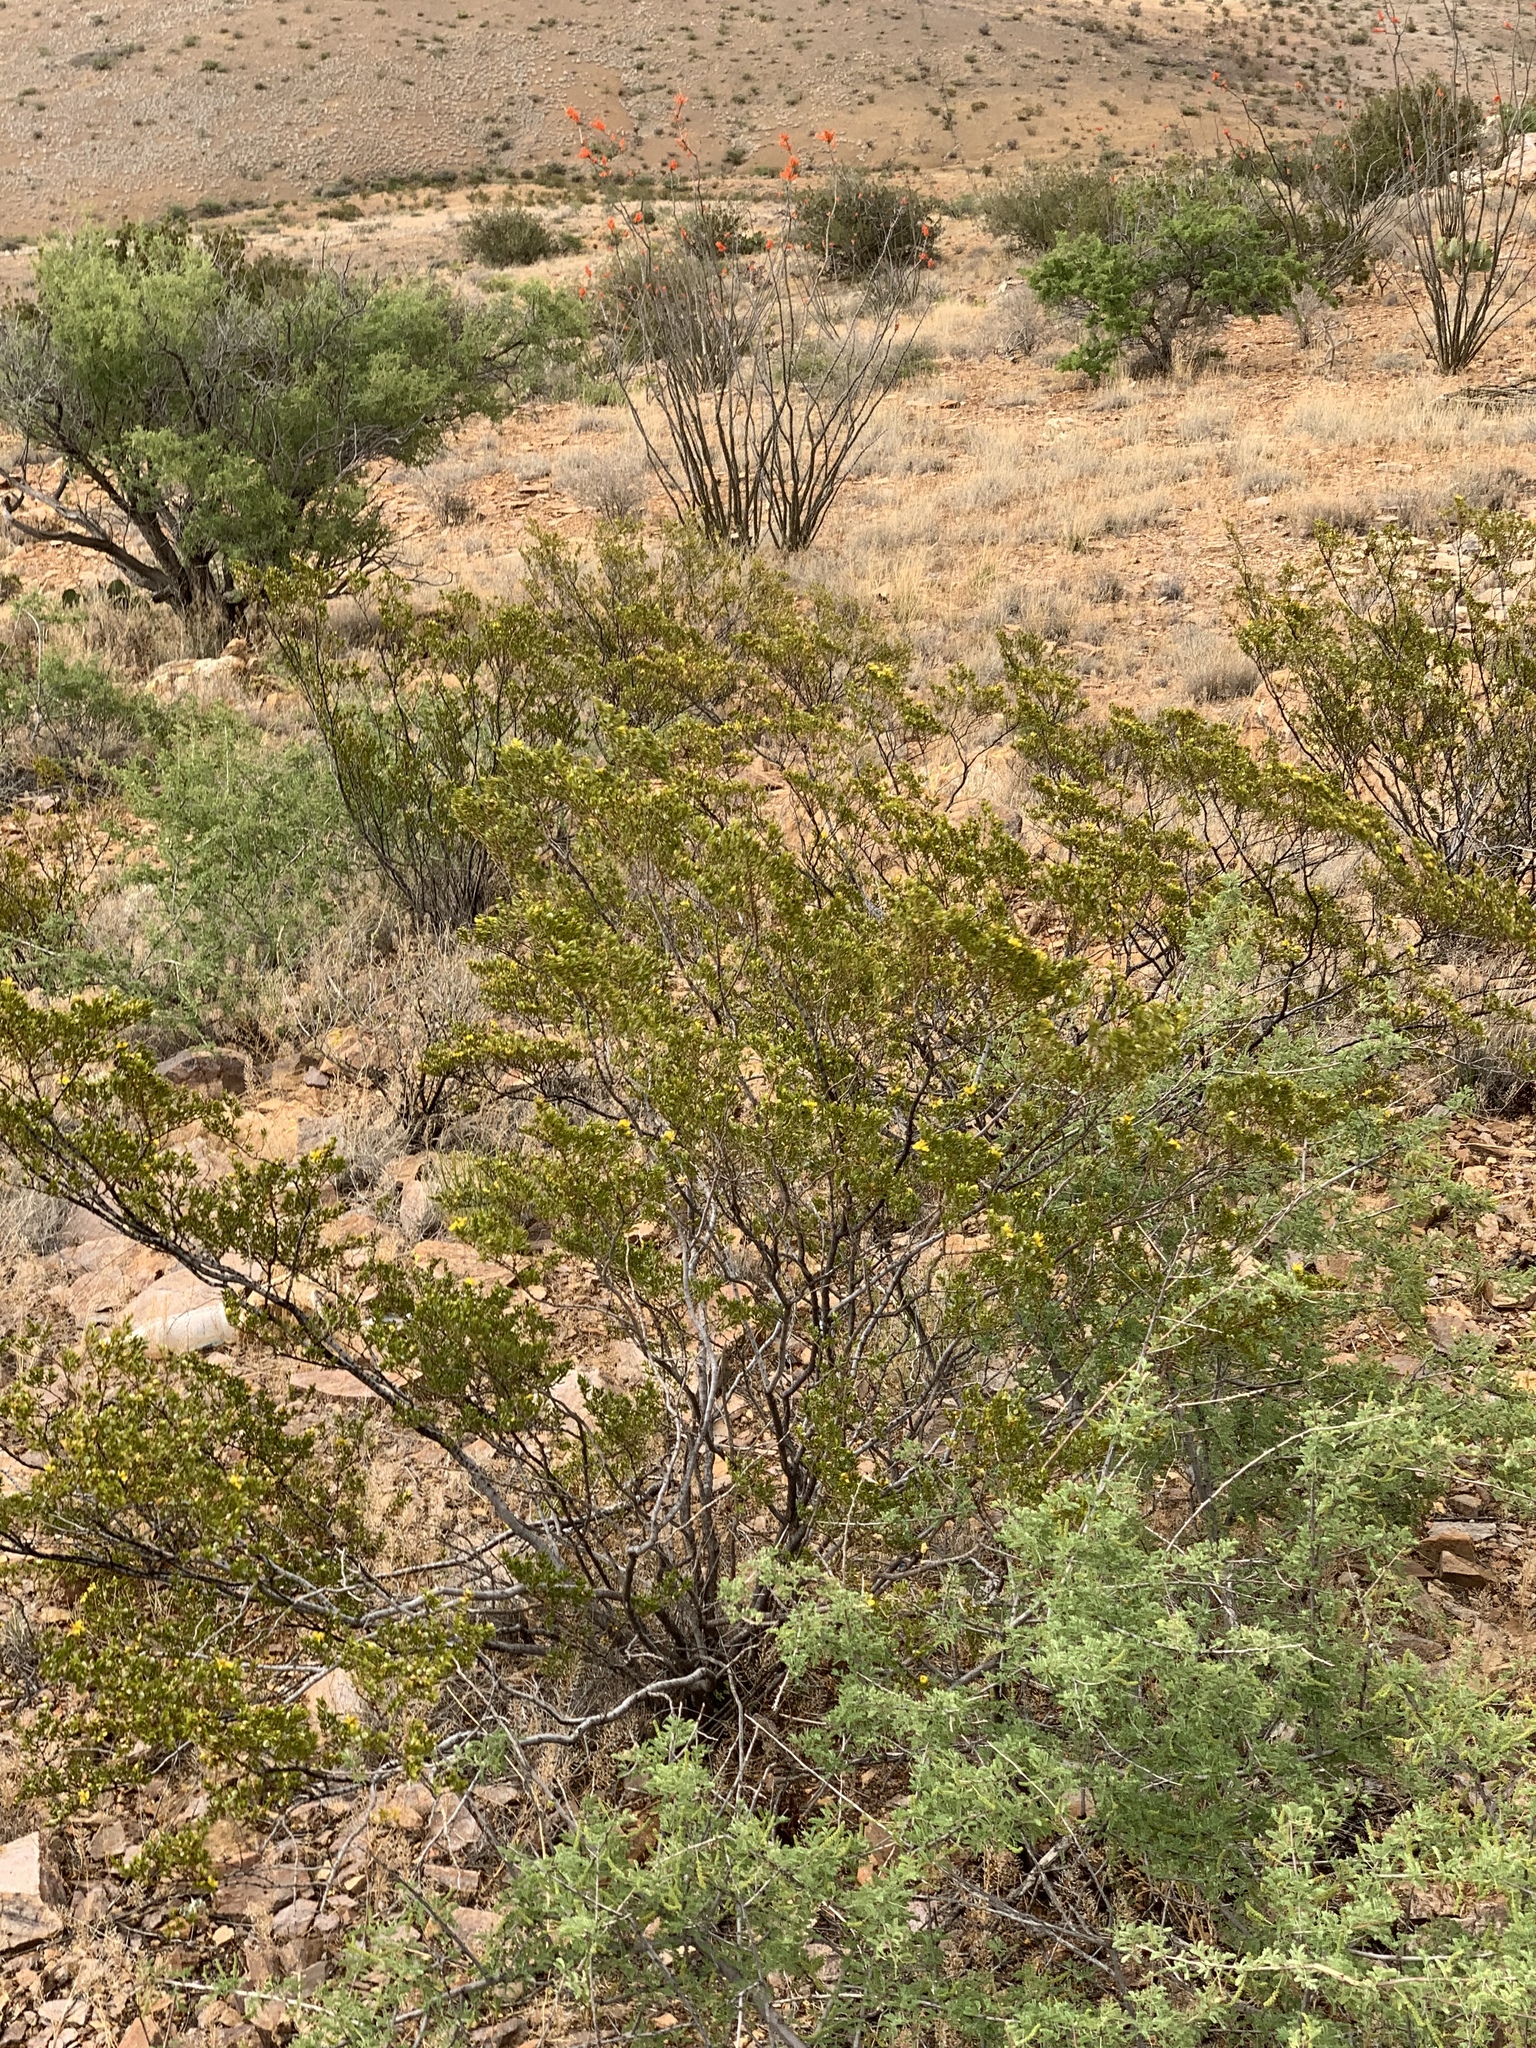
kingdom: Plantae
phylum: Tracheophyta
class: Magnoliopsida
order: Zygophyllales
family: Zygophyllaceae
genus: Larrea
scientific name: Larrea tridentata
